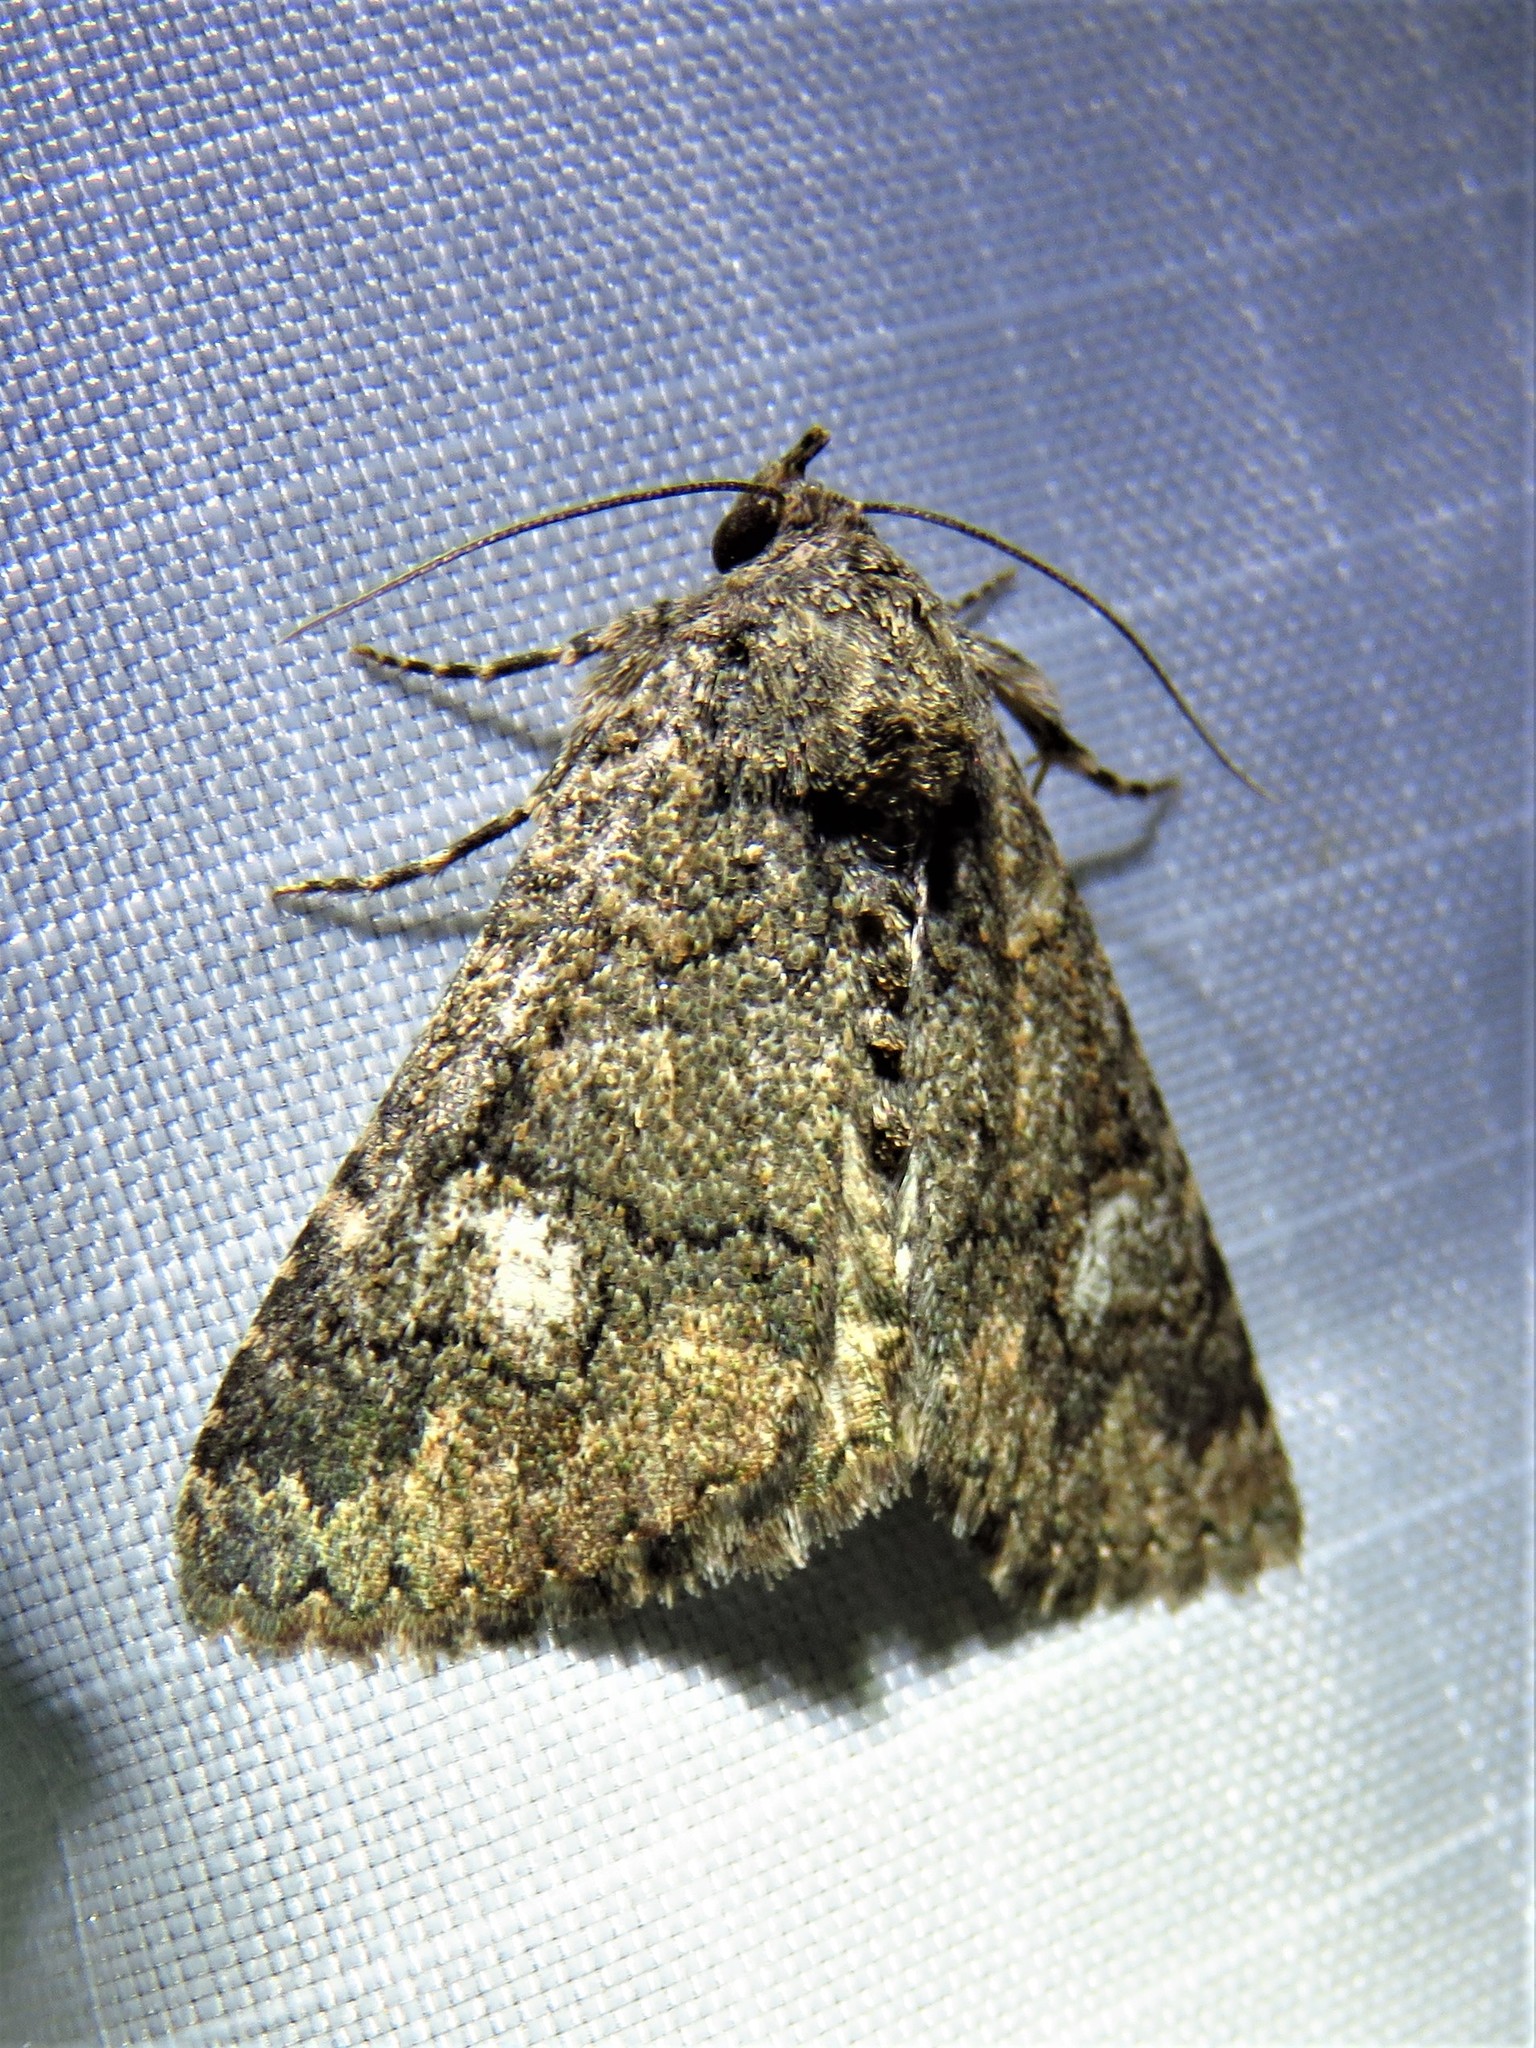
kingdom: Animalia
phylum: Arthropoda
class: Insecta
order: Lepidoptera
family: Erebidae
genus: Elousa
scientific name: Elousa mima
